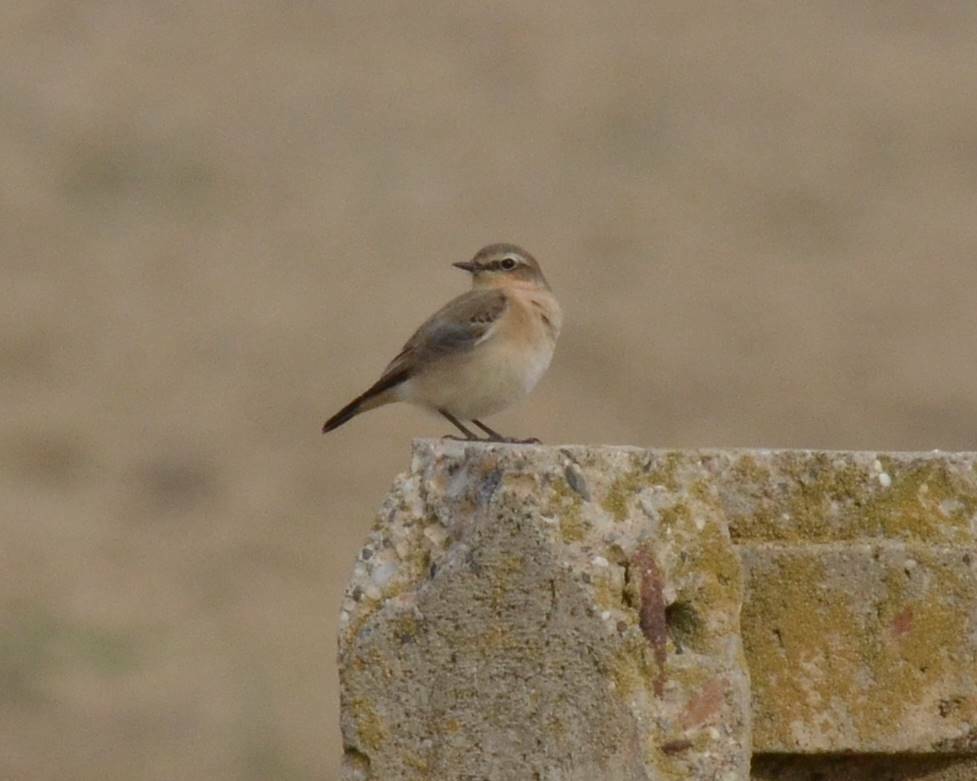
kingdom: Animalia
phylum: Chordata
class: Aves
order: Passeriformes
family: Muscicapidae
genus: Oenanthe
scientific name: Oenanthe oenanthe
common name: Northern wheatear
